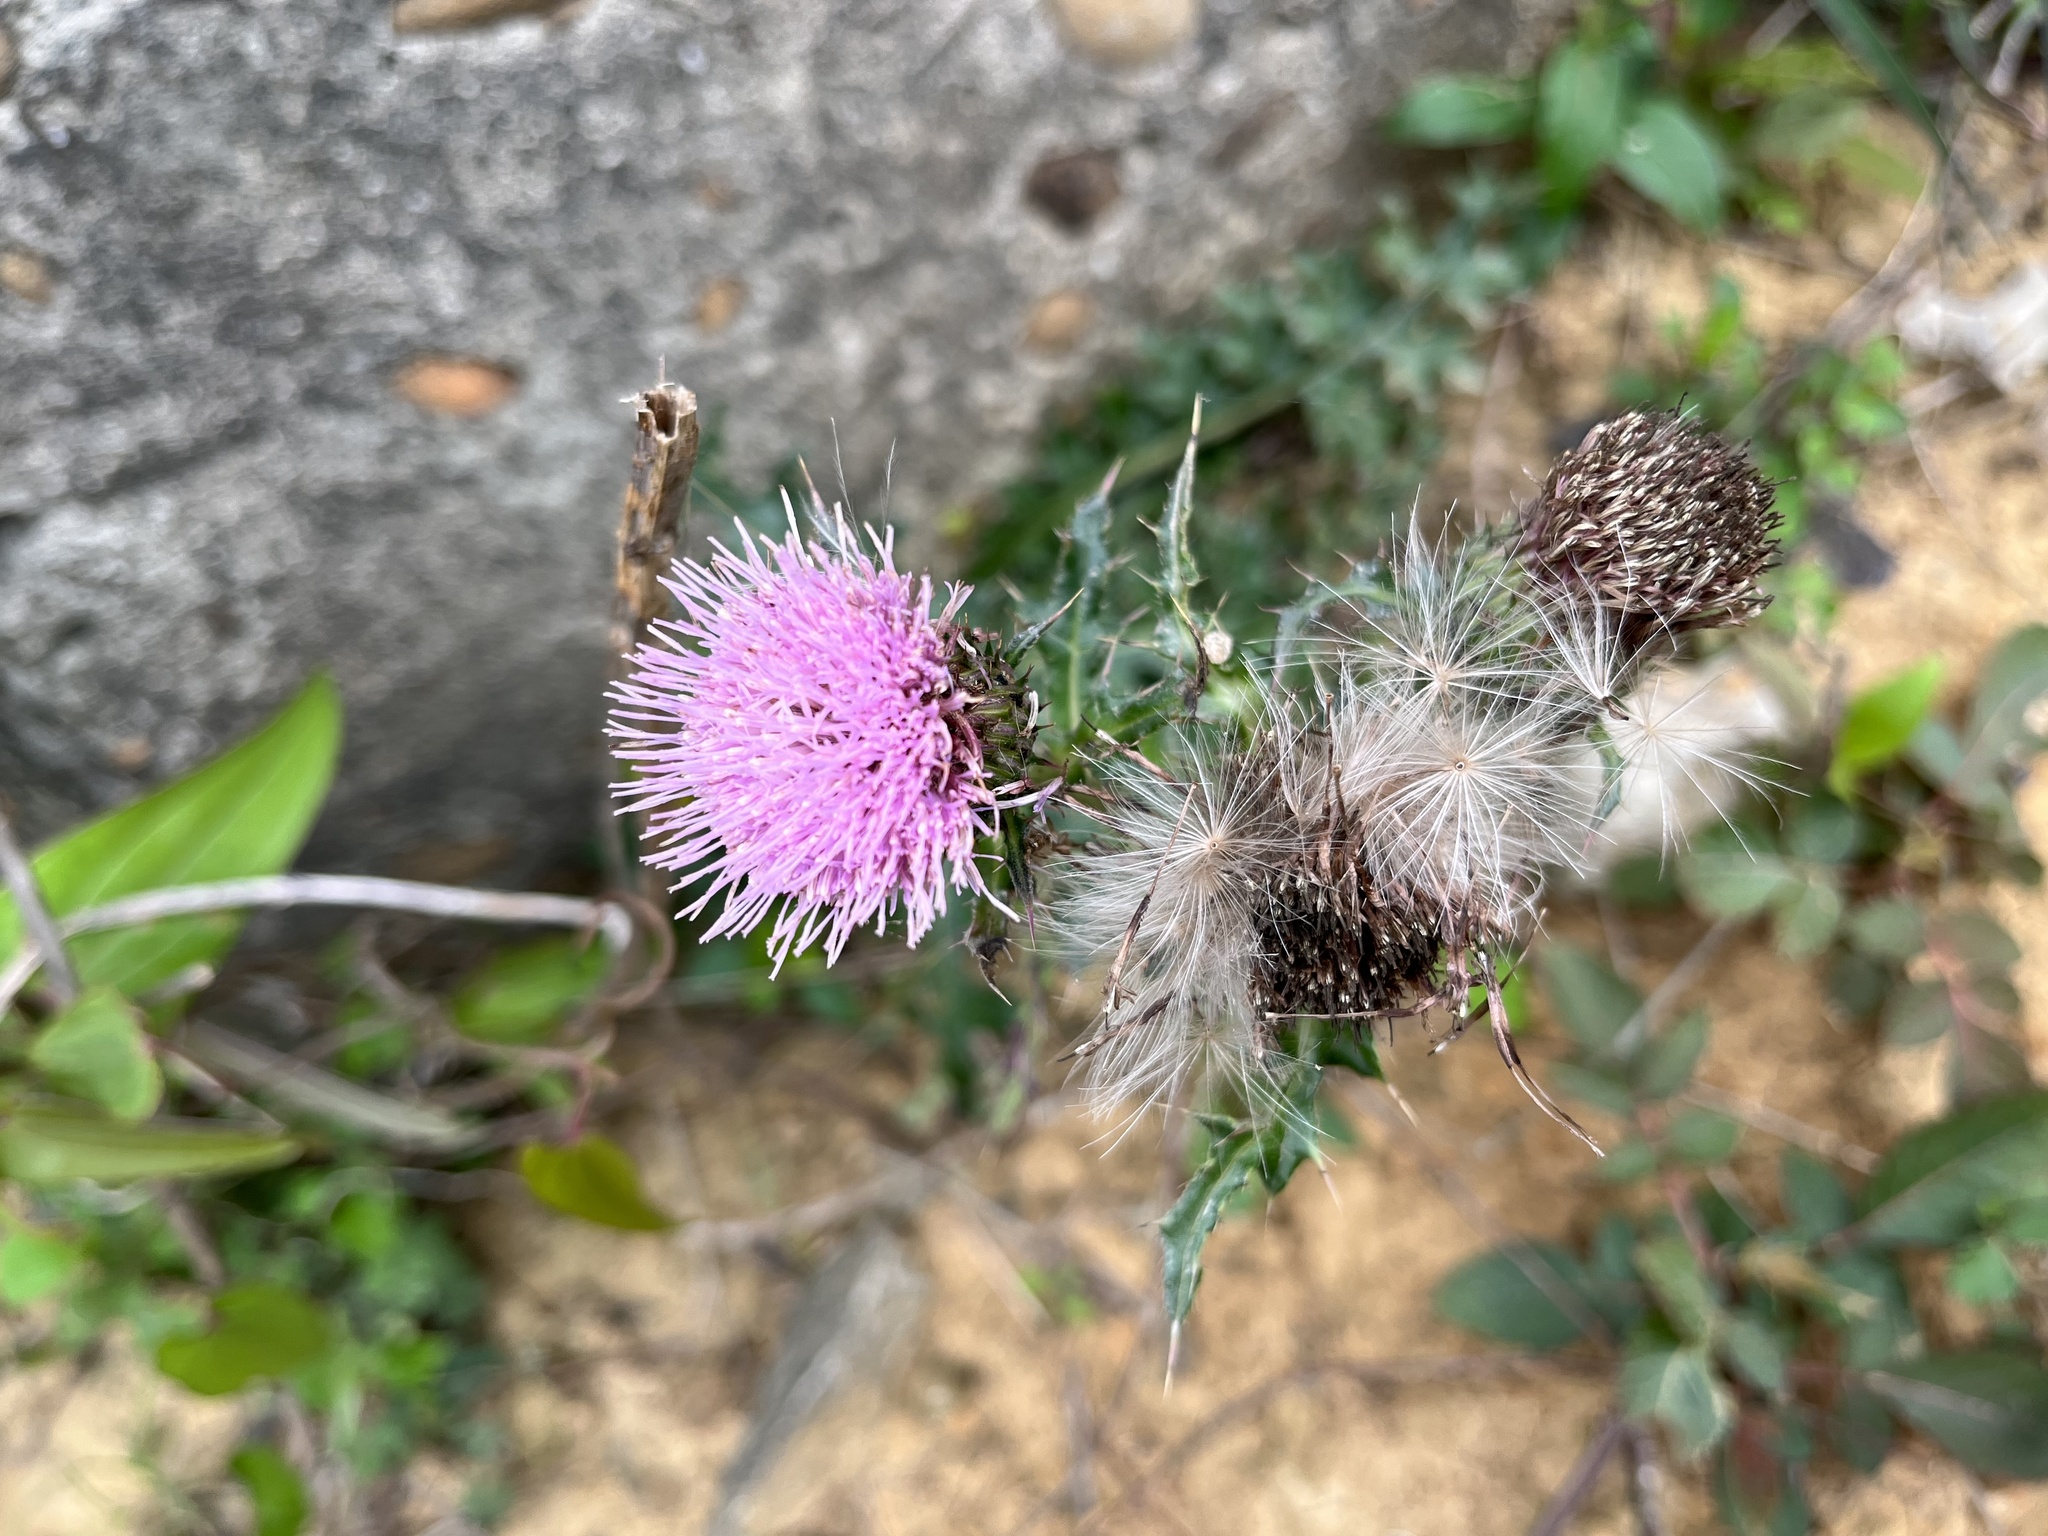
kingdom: Plantae
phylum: Tracheophyta
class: Magnoliopsida
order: Asterales
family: Asteraceae
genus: Cirsium
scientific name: Cirsium japonicum
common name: Japanese thistle
